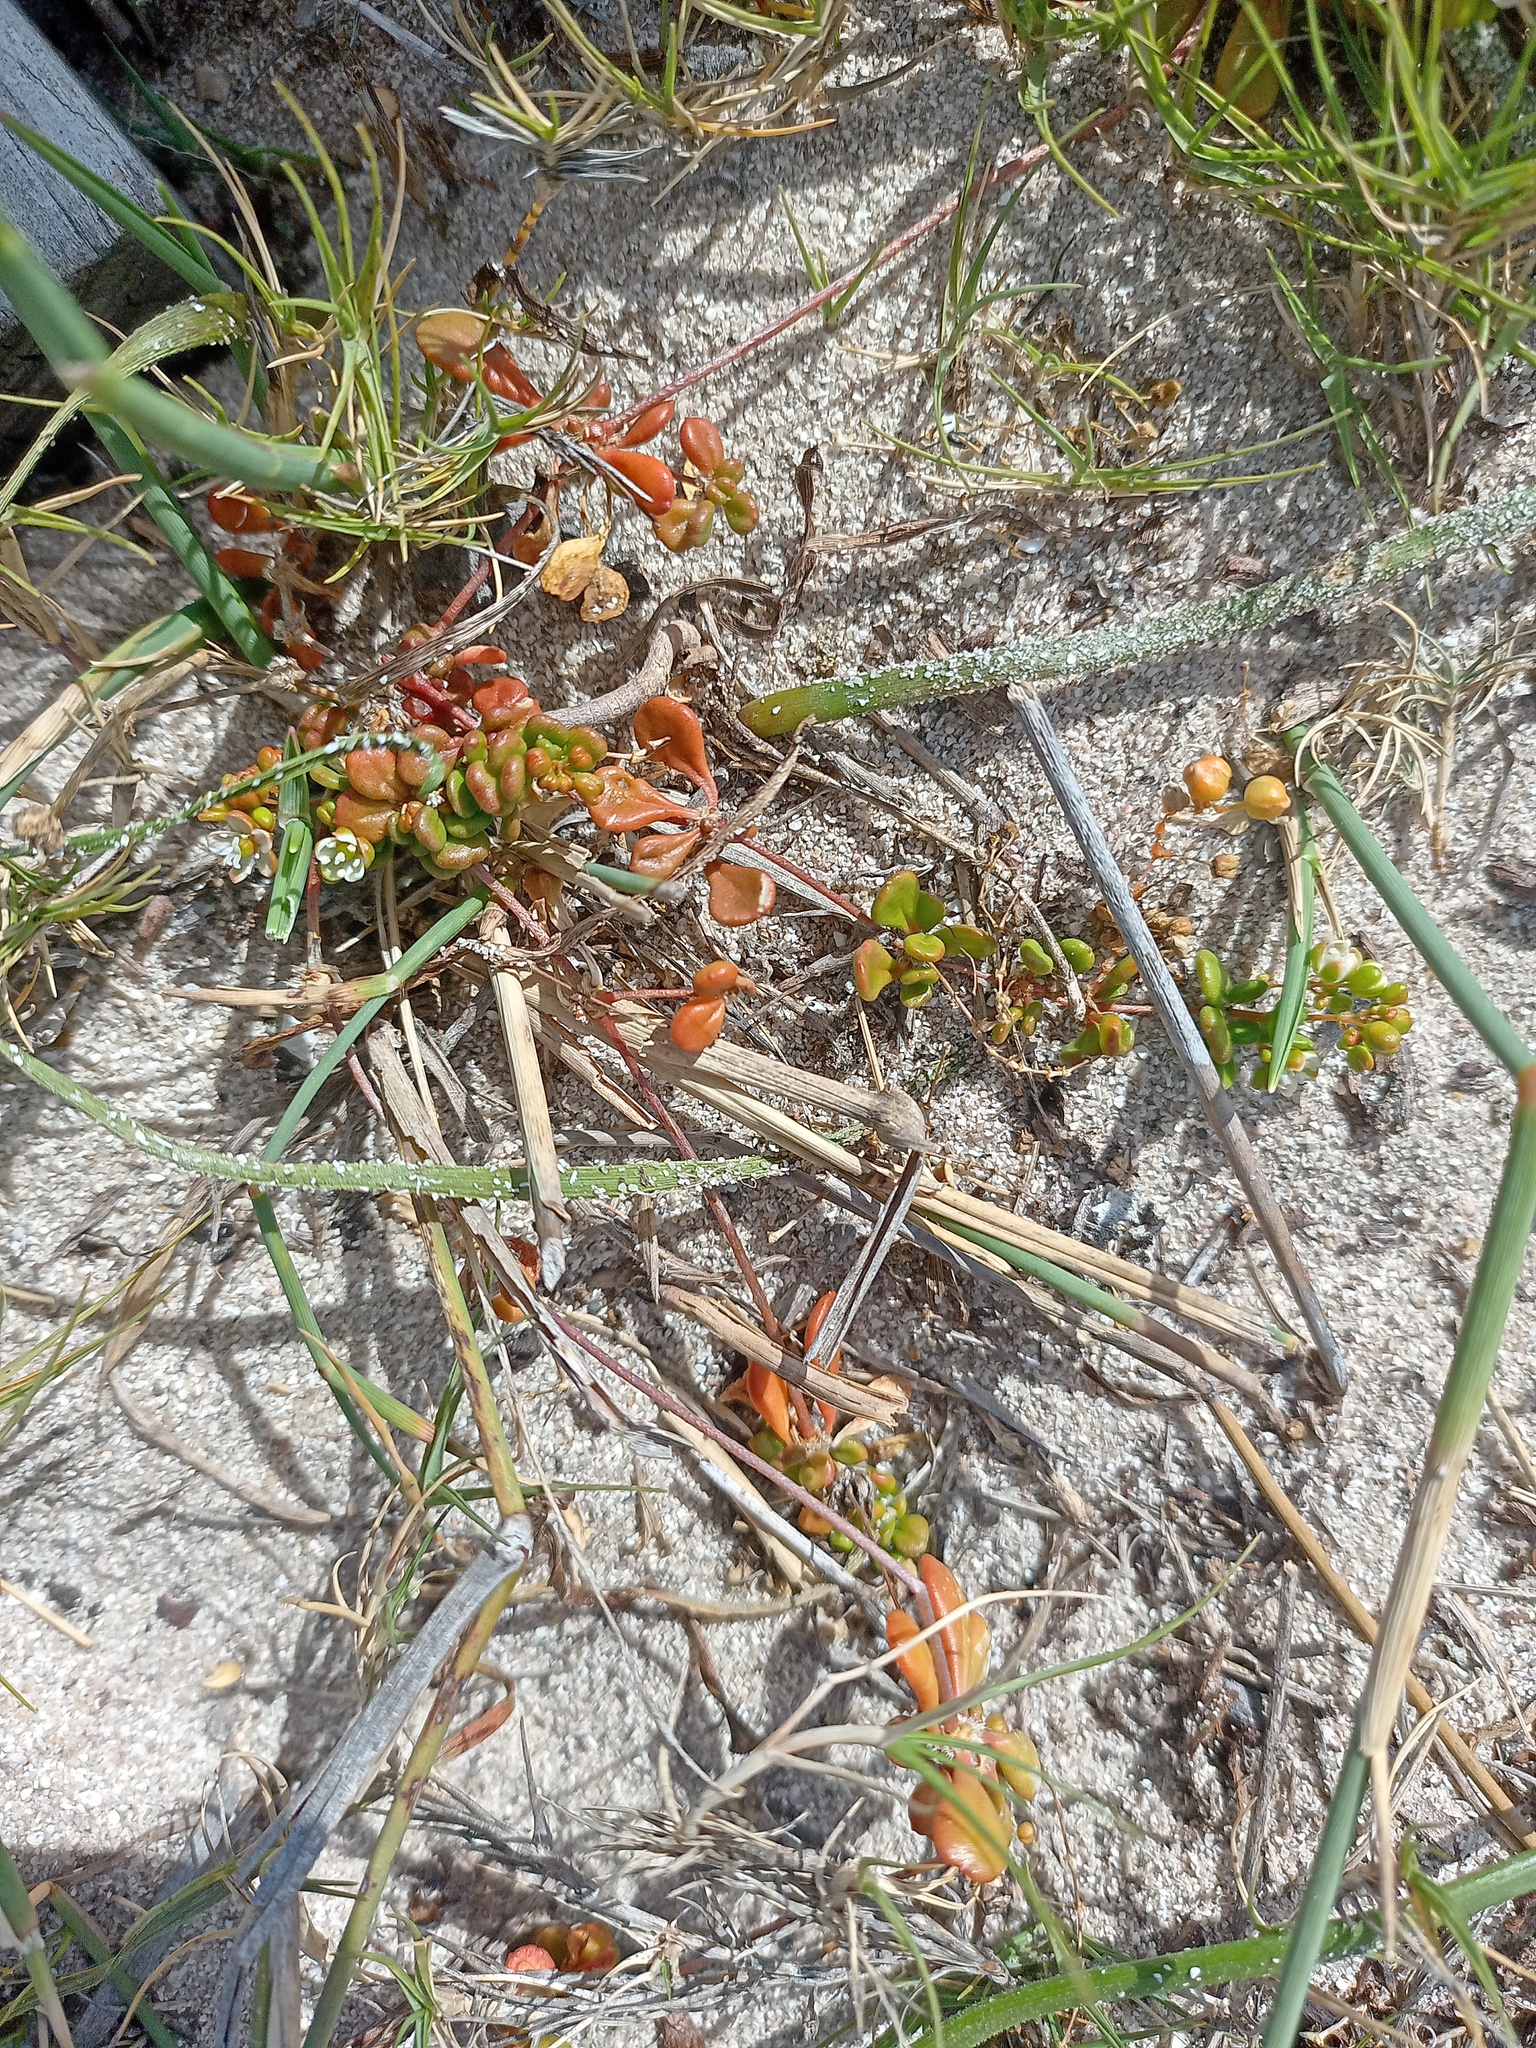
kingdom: Plantae
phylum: Tracheophyta
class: Magnoliopsida
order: Caryophyllales
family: Molluginaceae
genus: Pharnaceum
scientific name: Pharnaceum cordifolium
